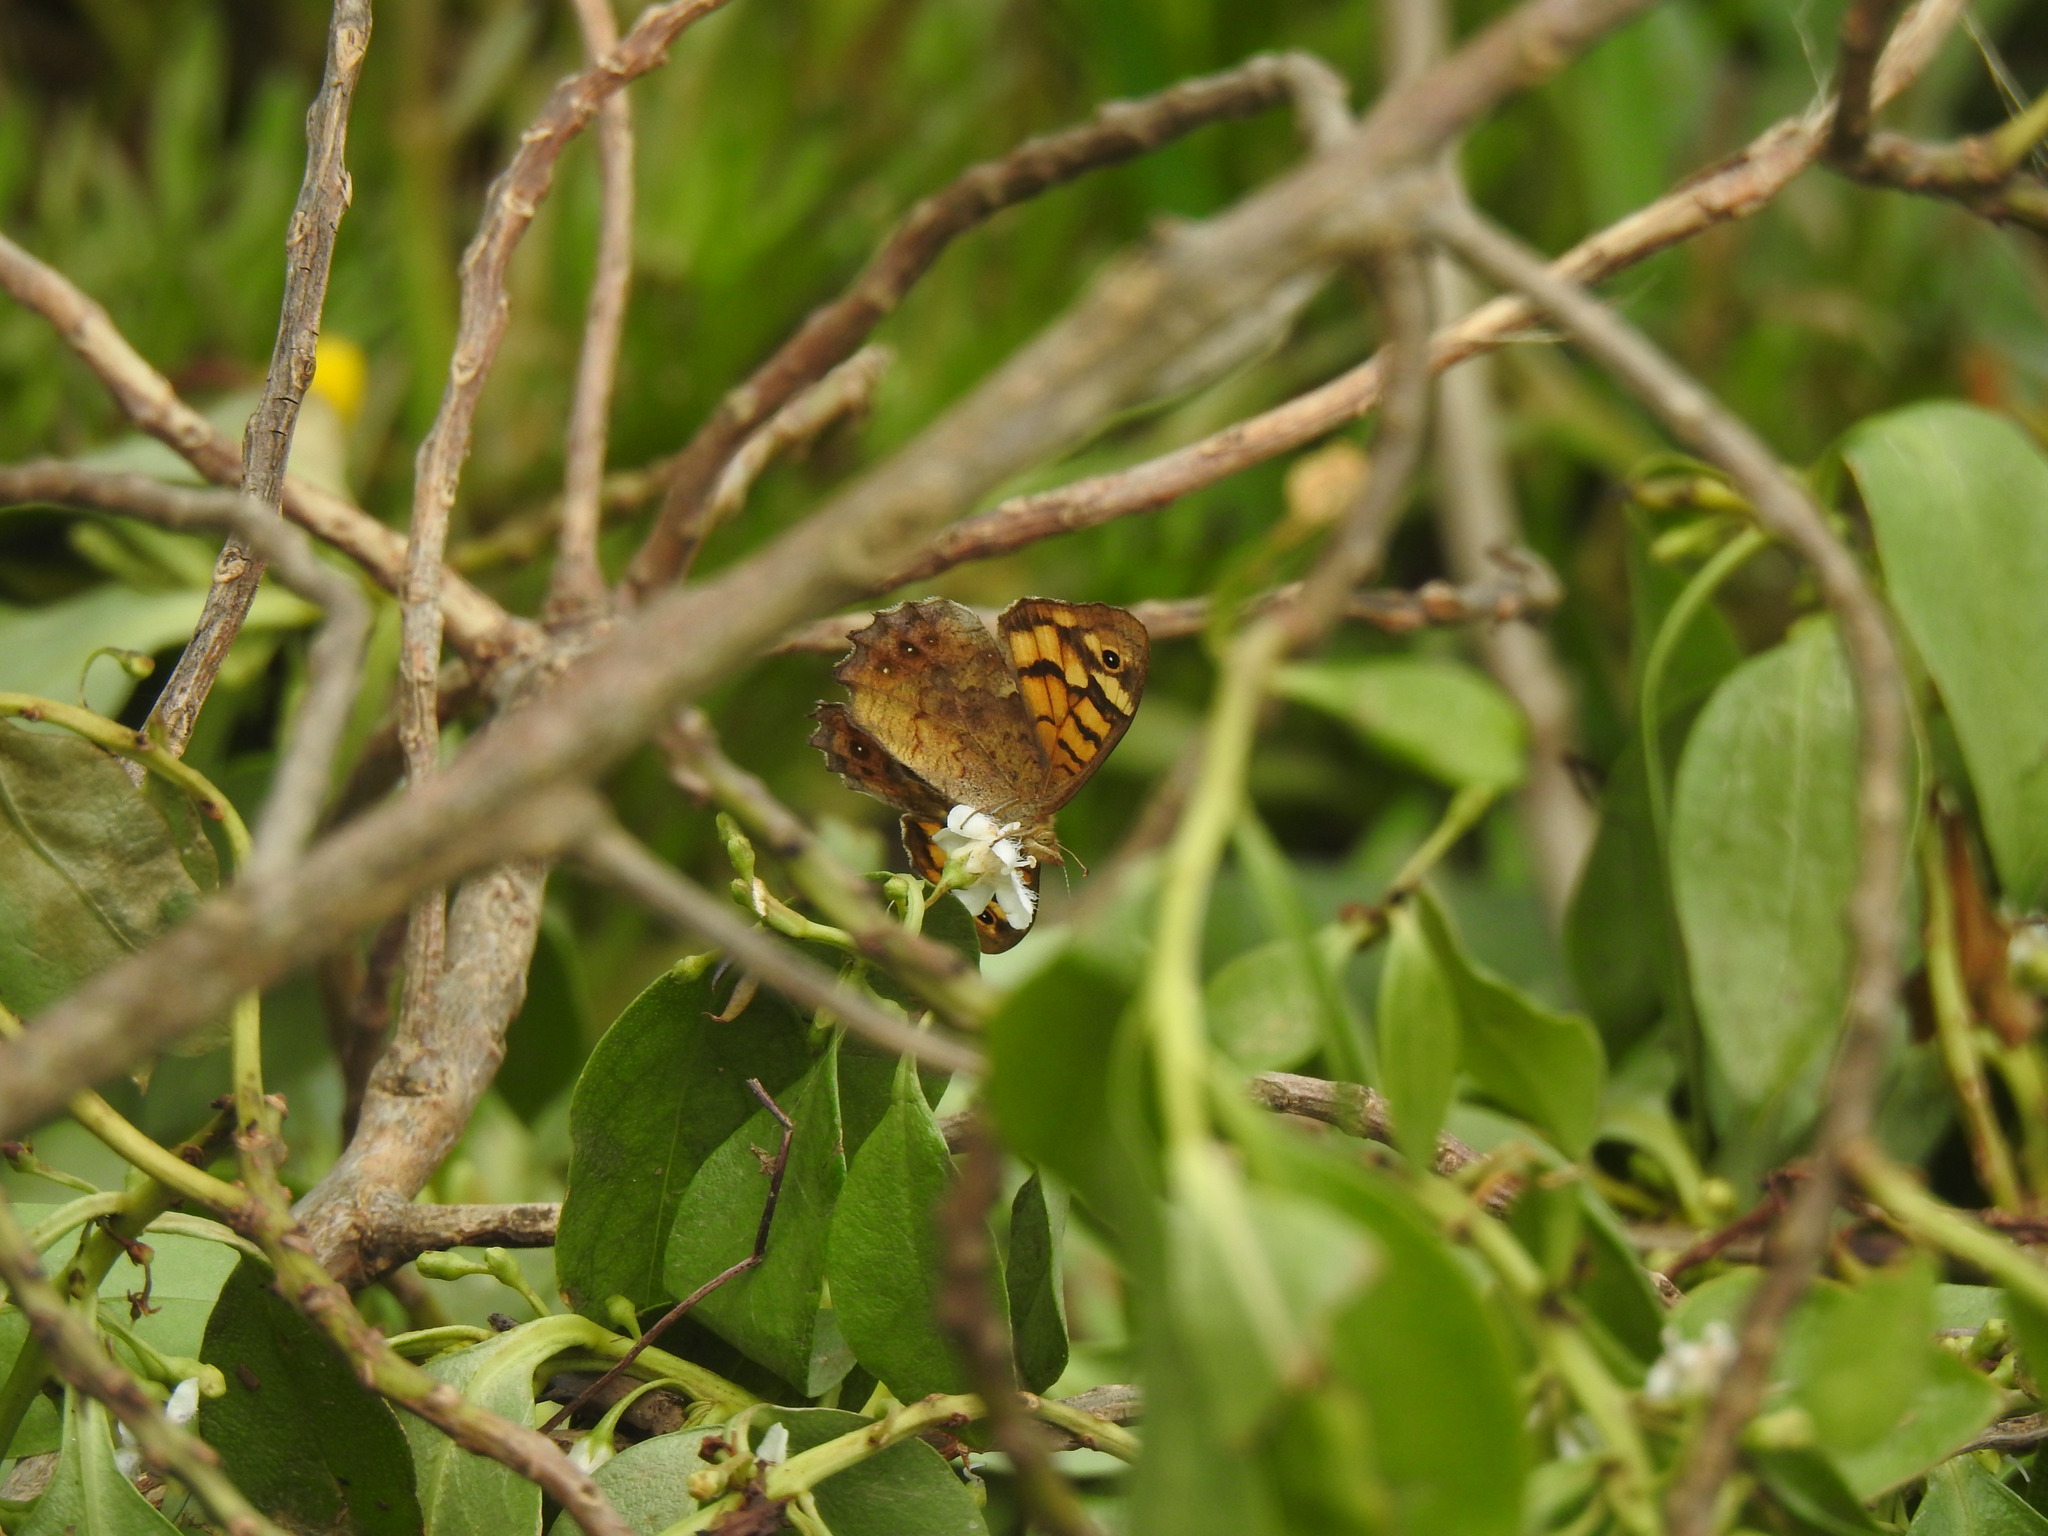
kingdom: Animalia
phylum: Arthropoda
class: Insecta
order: Lepidoptera
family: Nymphalidae
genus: Pararge
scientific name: Pararge aegeria
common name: Speckled wood
